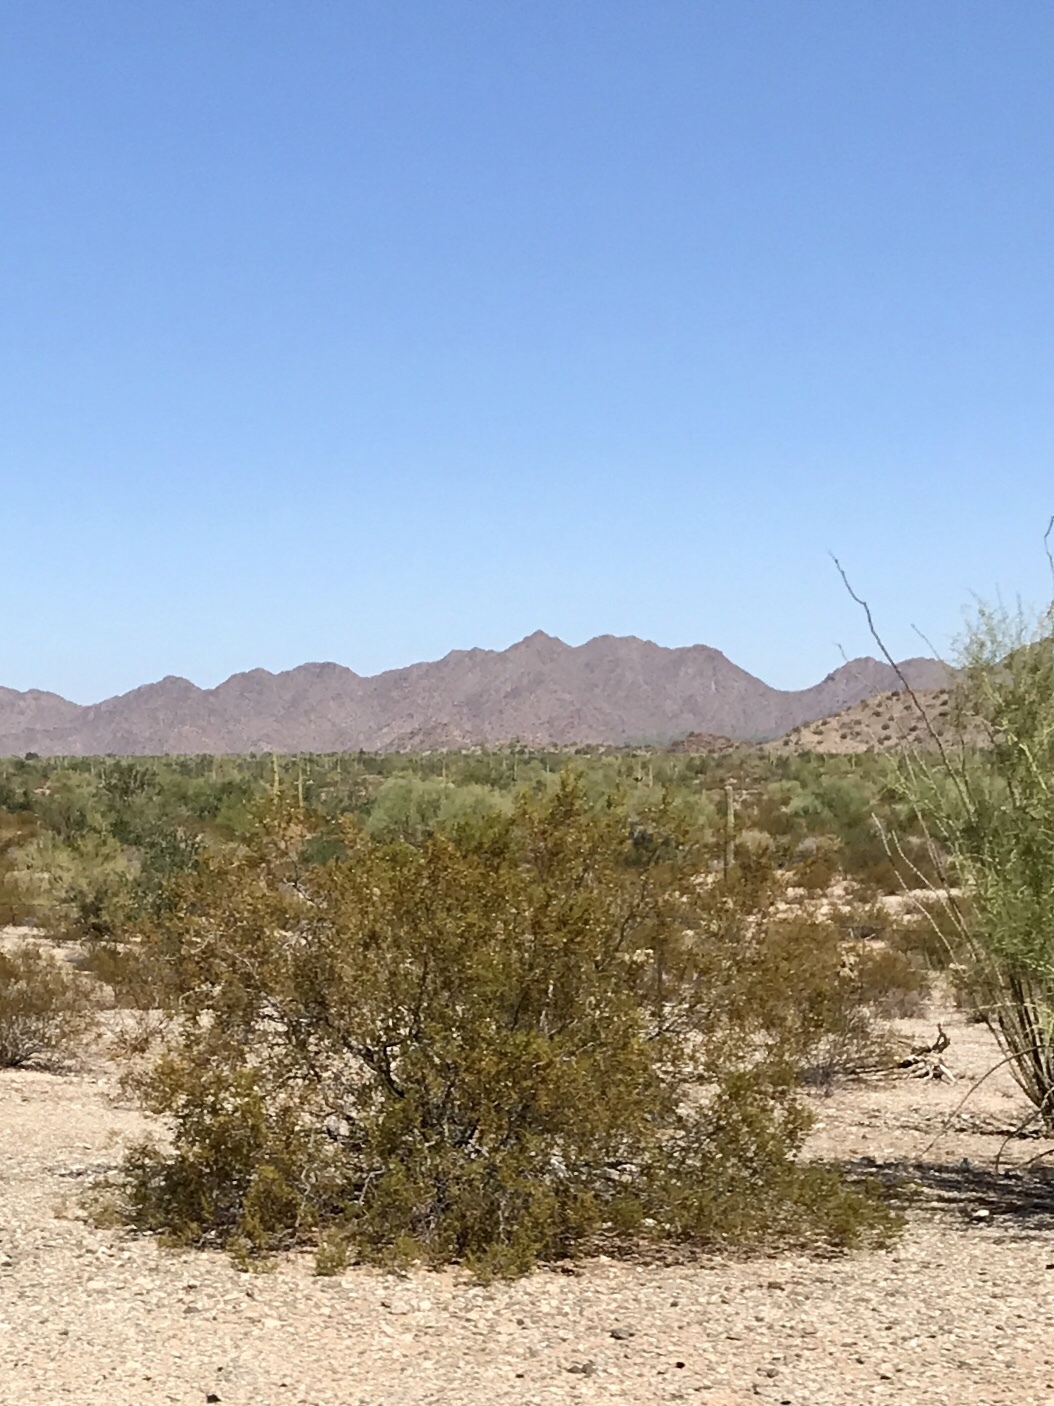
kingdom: Plantae
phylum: Tracheophyta
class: Magnoliopsida
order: Zygophyllales
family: Zygophyllaceae
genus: Larrea
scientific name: Larrea tridentata
